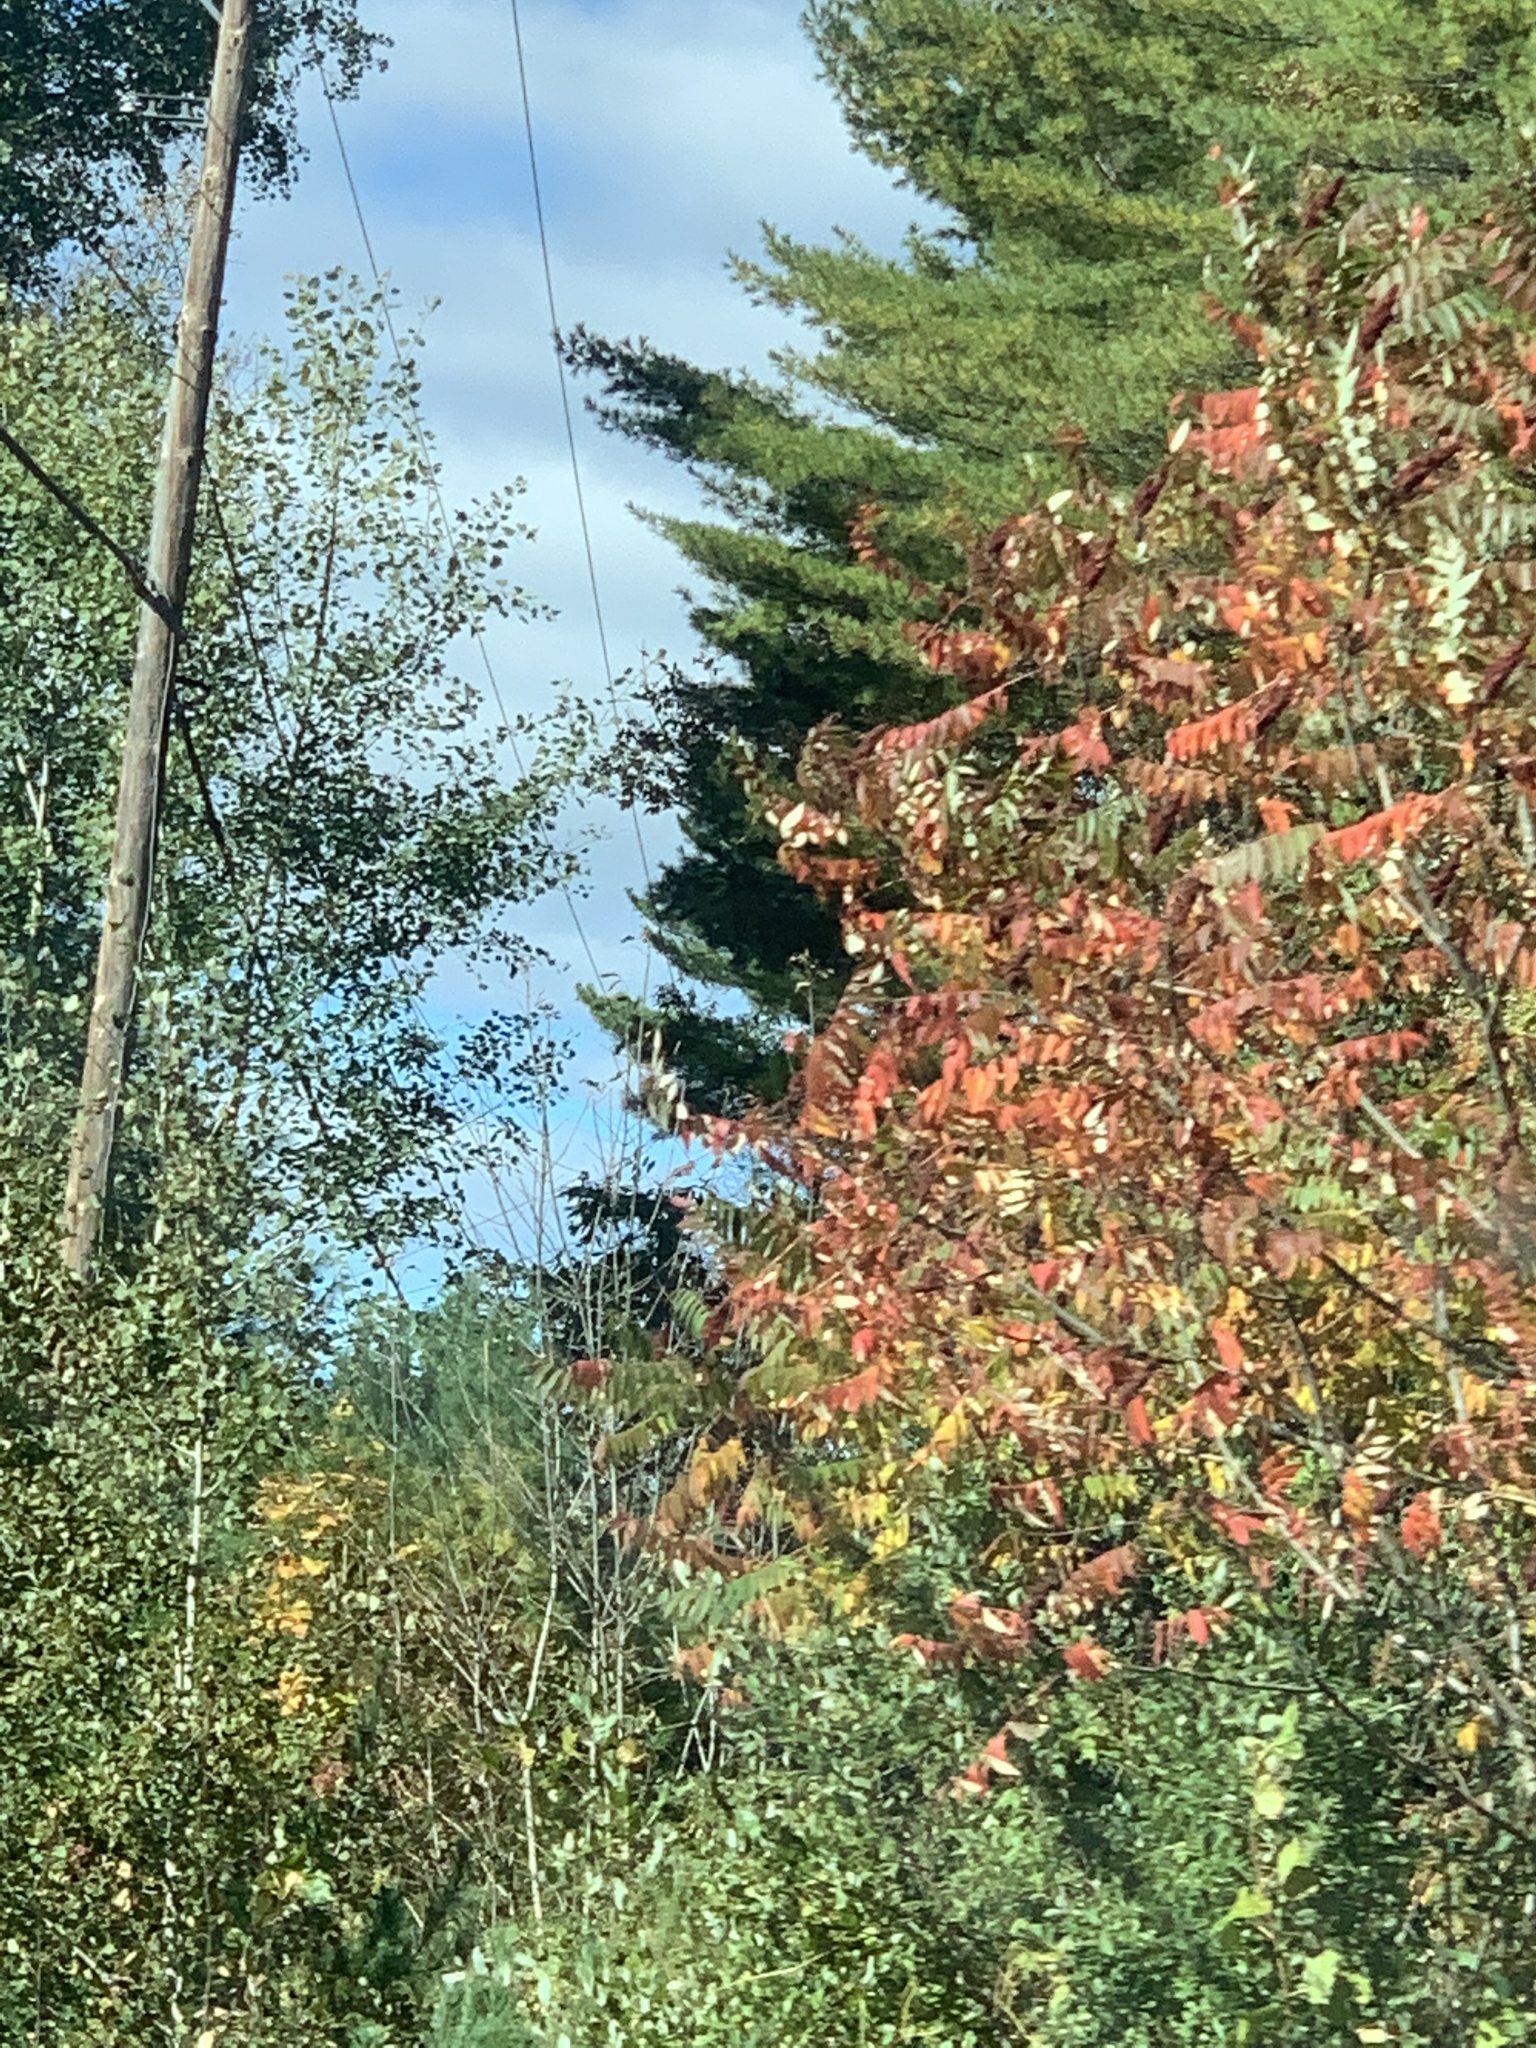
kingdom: Plantae
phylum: Tracheophyta
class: Magnoliopsida
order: Sapindales
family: Anacardiaceae
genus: Rhus
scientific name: Rhus typhina
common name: Staghorn sumac
